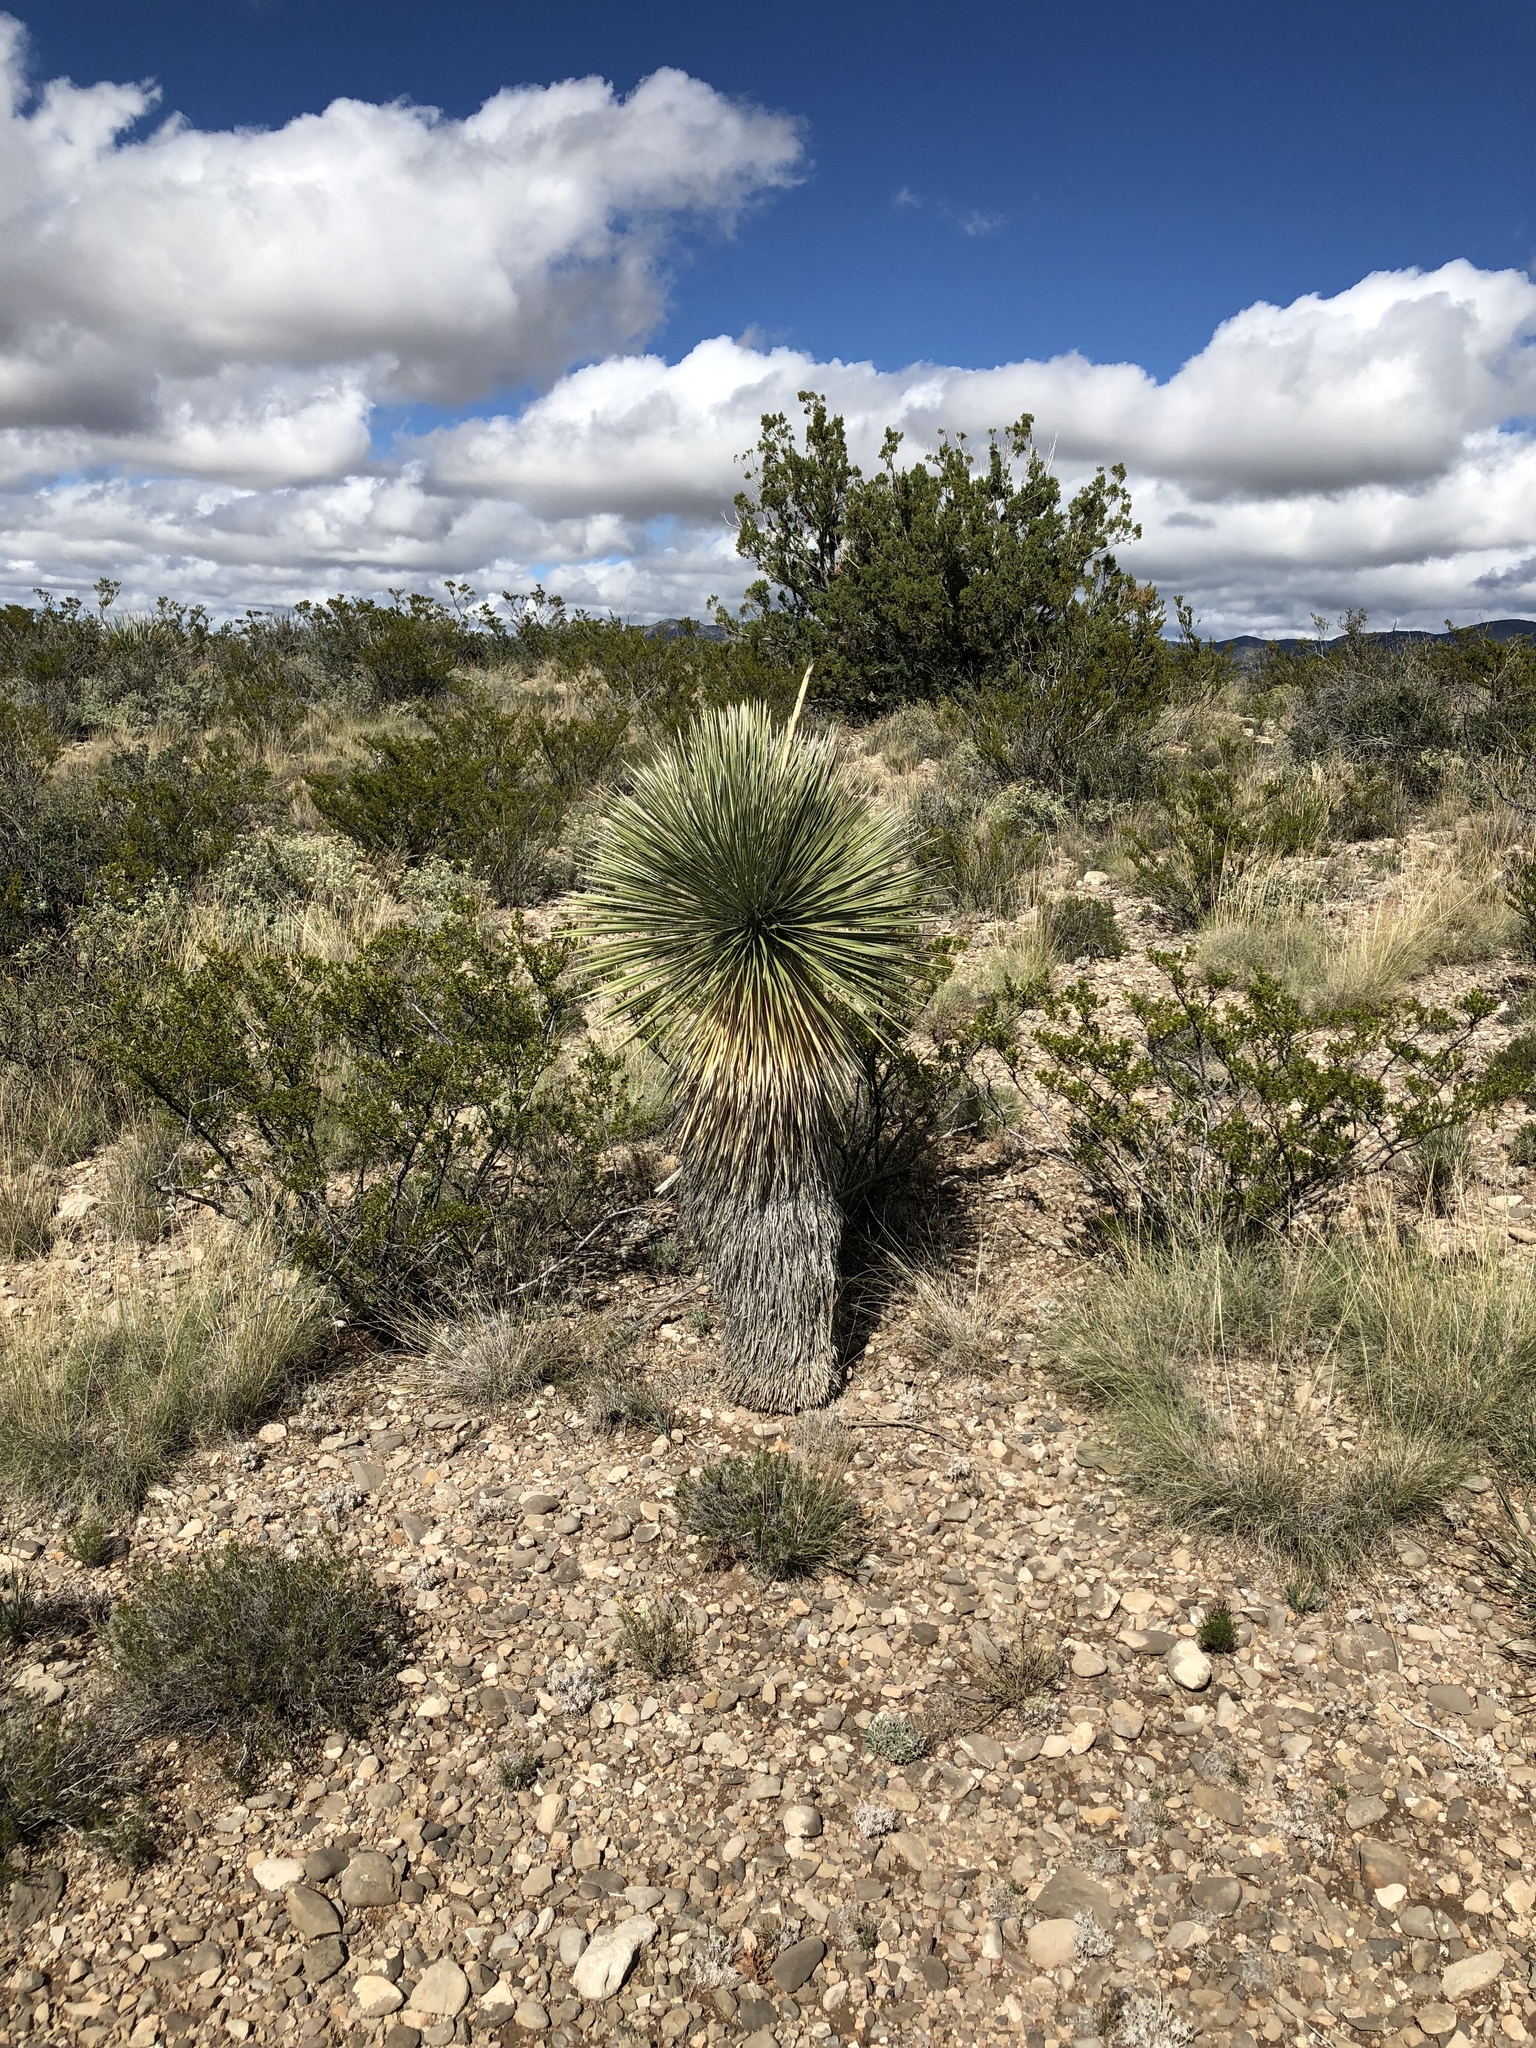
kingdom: Plantae
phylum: Tracheophyta
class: Liliopsida
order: Asparagales
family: Asparagaceae
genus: Yucca
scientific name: Yucca elata
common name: Palmella
